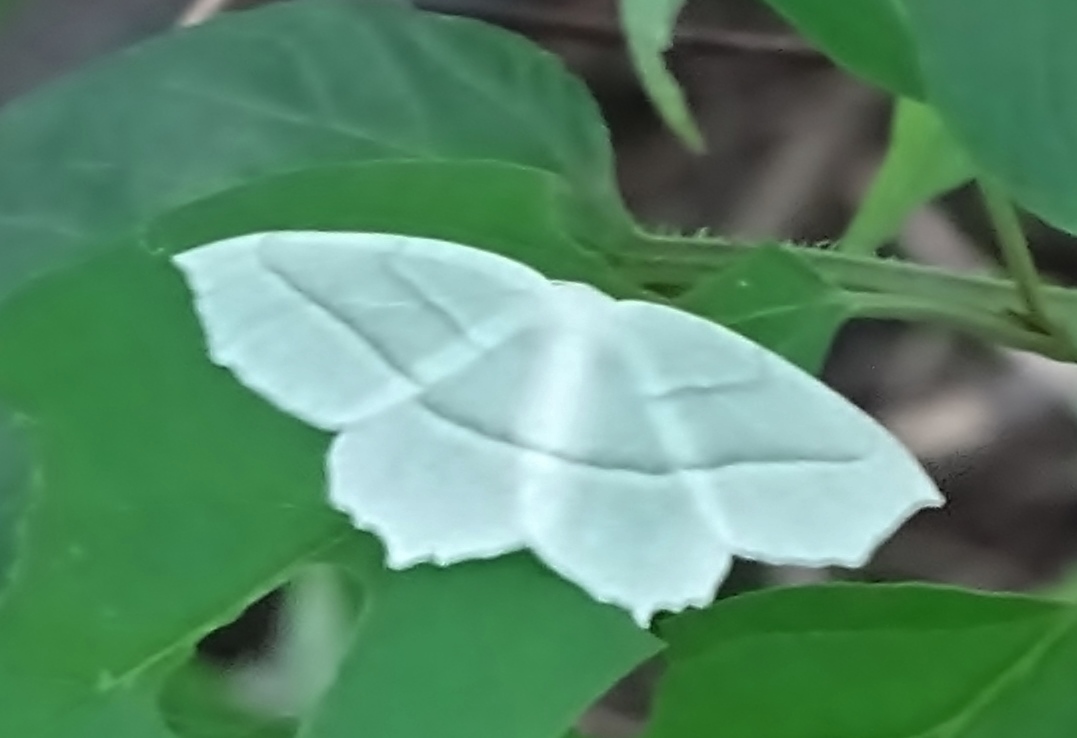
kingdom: Animalia
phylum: Arthropoda
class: Insecta
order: Lepidoptera
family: Geometridae
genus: Campaea
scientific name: Campaea perlata
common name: Fringed looper
